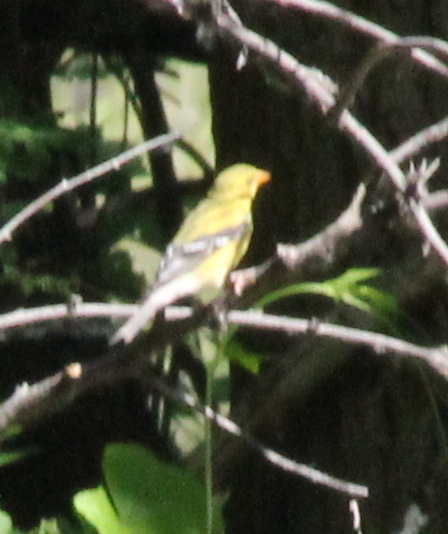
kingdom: Animalia
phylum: Chordata
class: Aves
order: Passeriformes
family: Cardinalidae
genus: Piranga
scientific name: Piranga ludoviciana
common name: Western tanager
